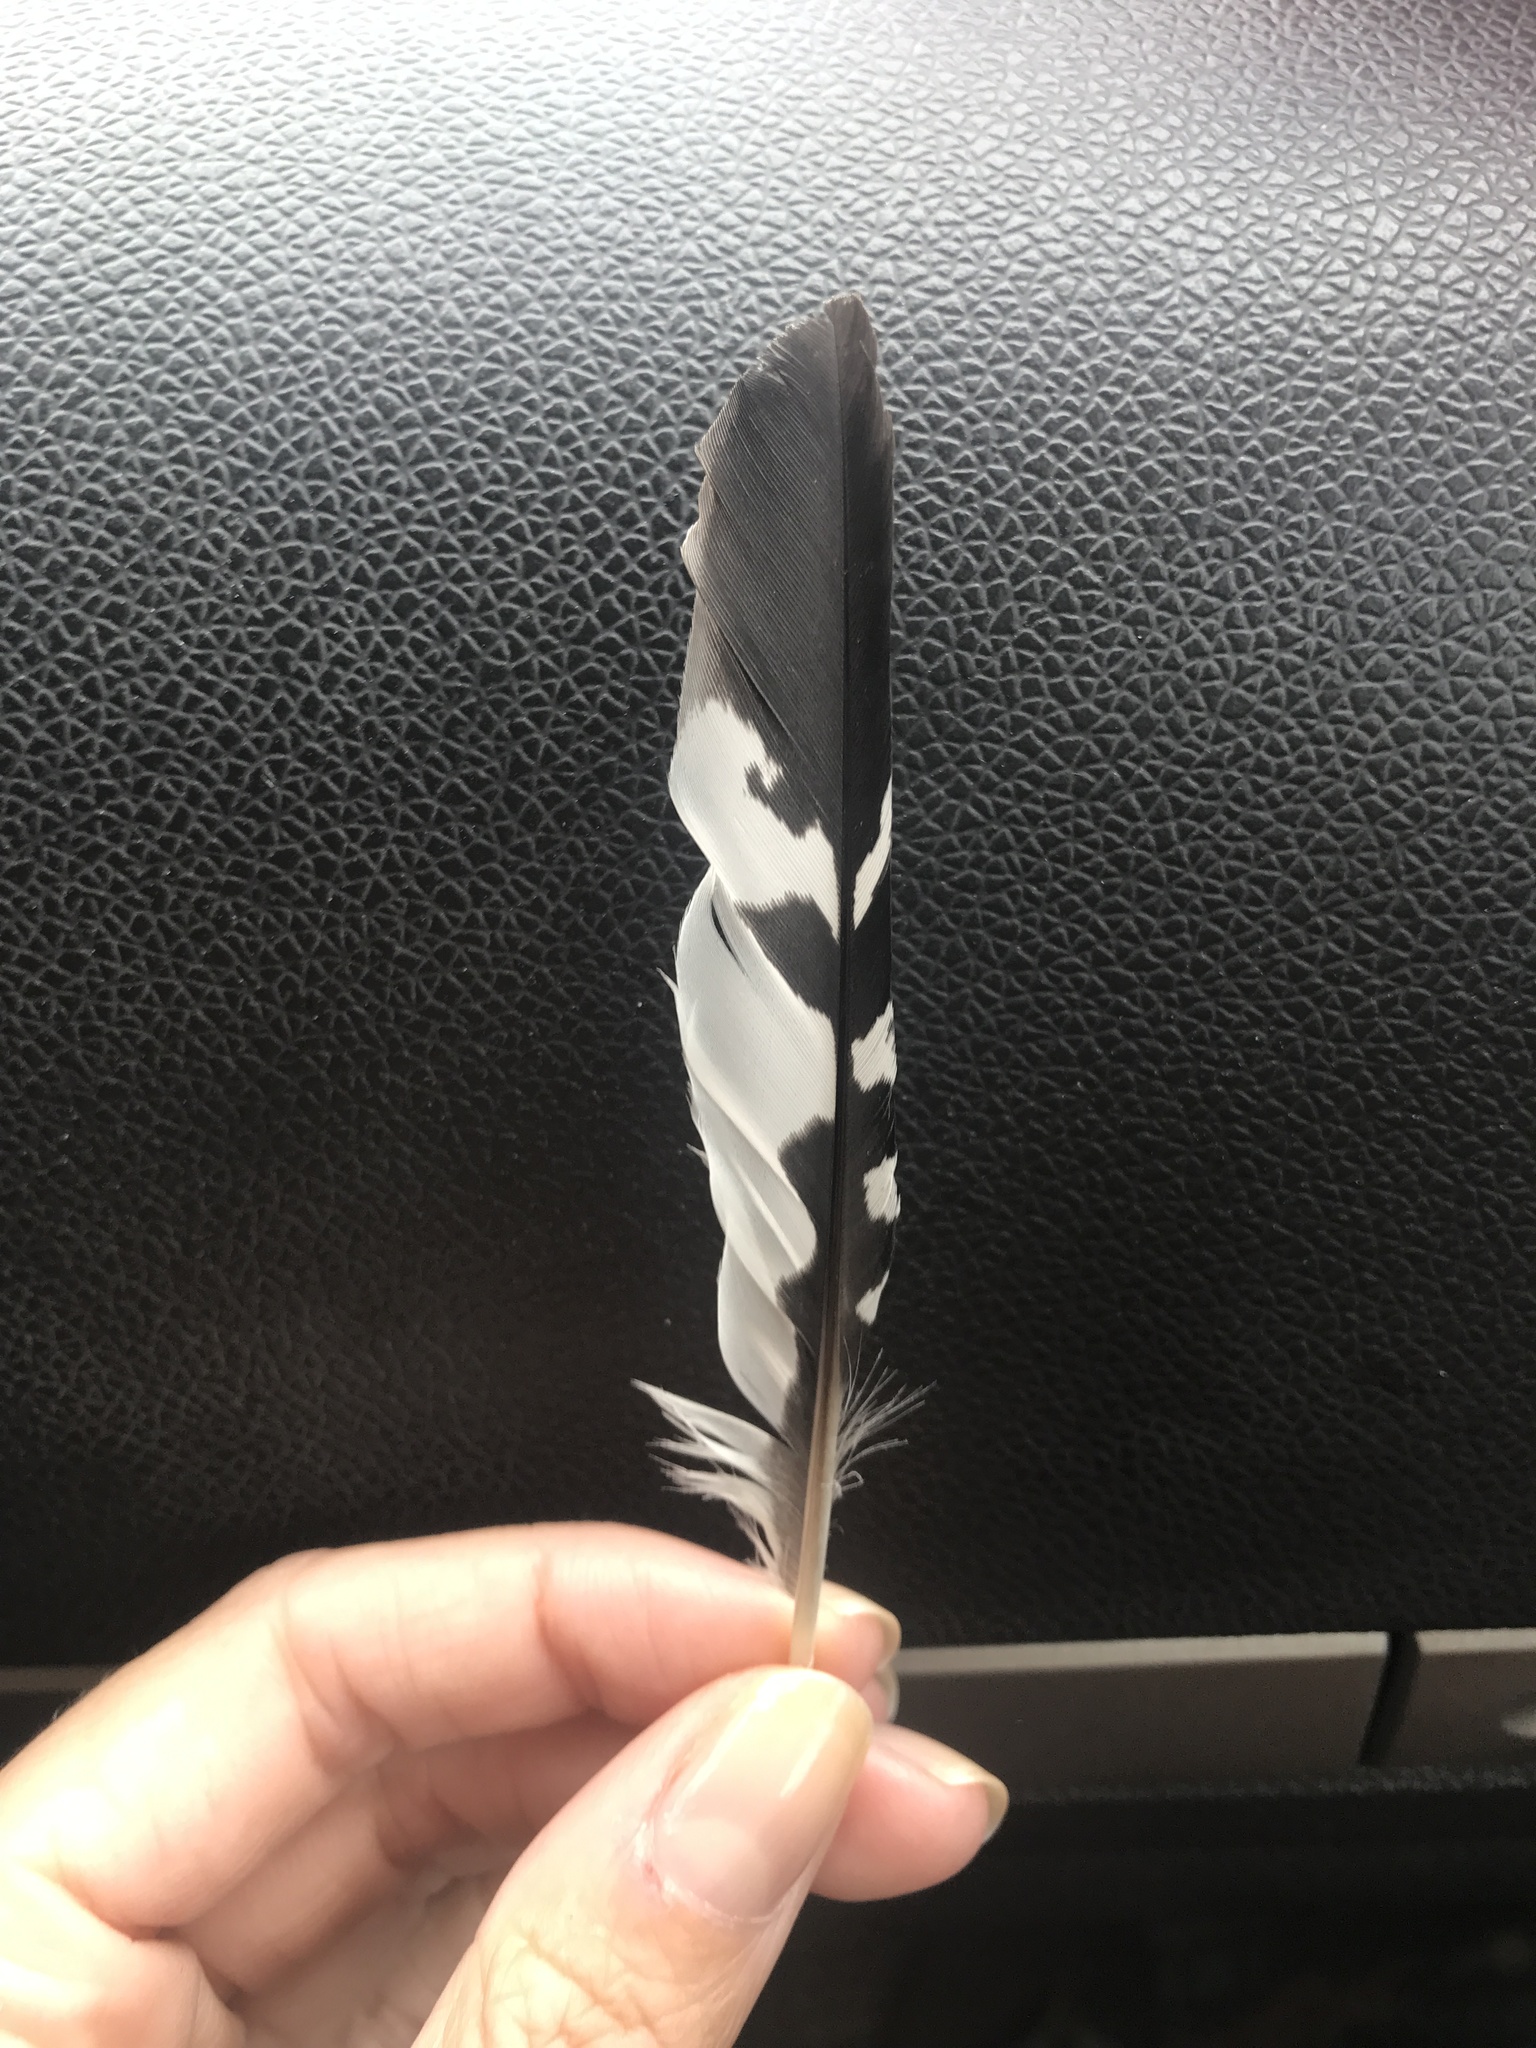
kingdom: Animalia
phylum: Chordata
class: Aves
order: Coraciiformes
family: Alcedinidae
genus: Megaceryle
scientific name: Megaceryle alcyon
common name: Belted kingfisher
